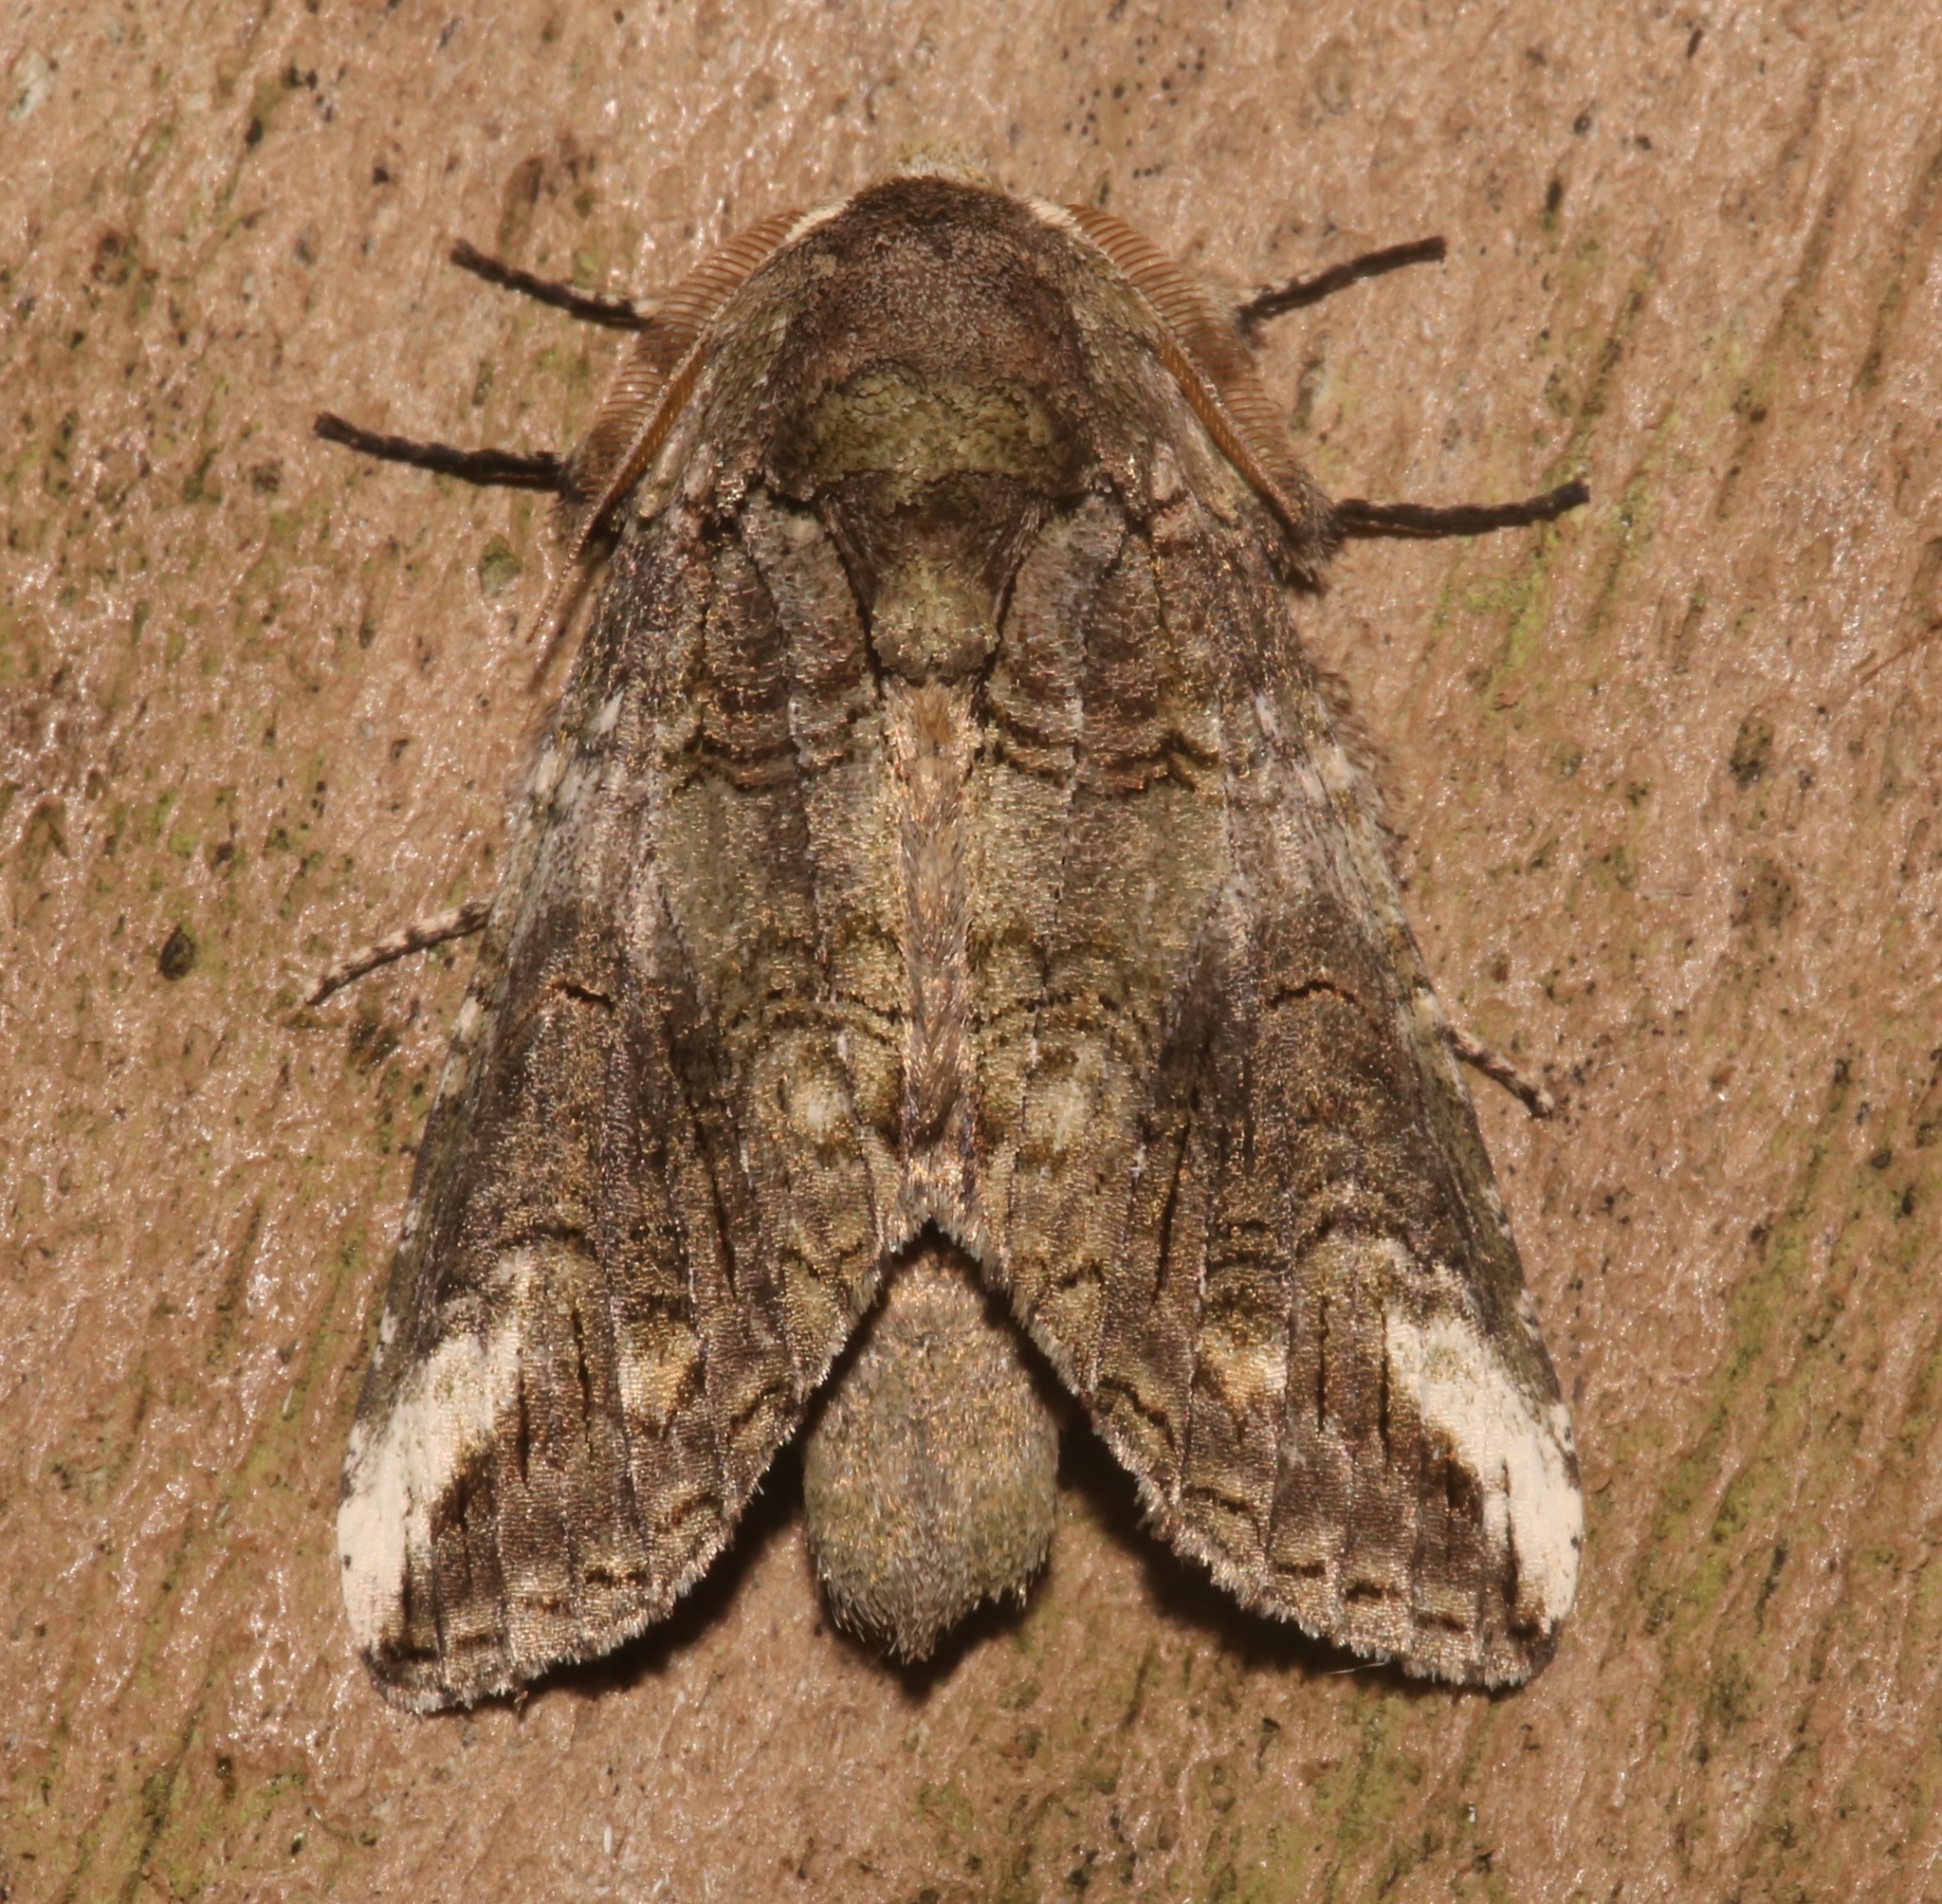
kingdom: Animalia
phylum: Arthropoda
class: Insecta
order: Lepidoptera
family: Notodontidae
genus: Heterocampa
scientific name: Heterocampa obliqua
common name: Oblique heterocampa
